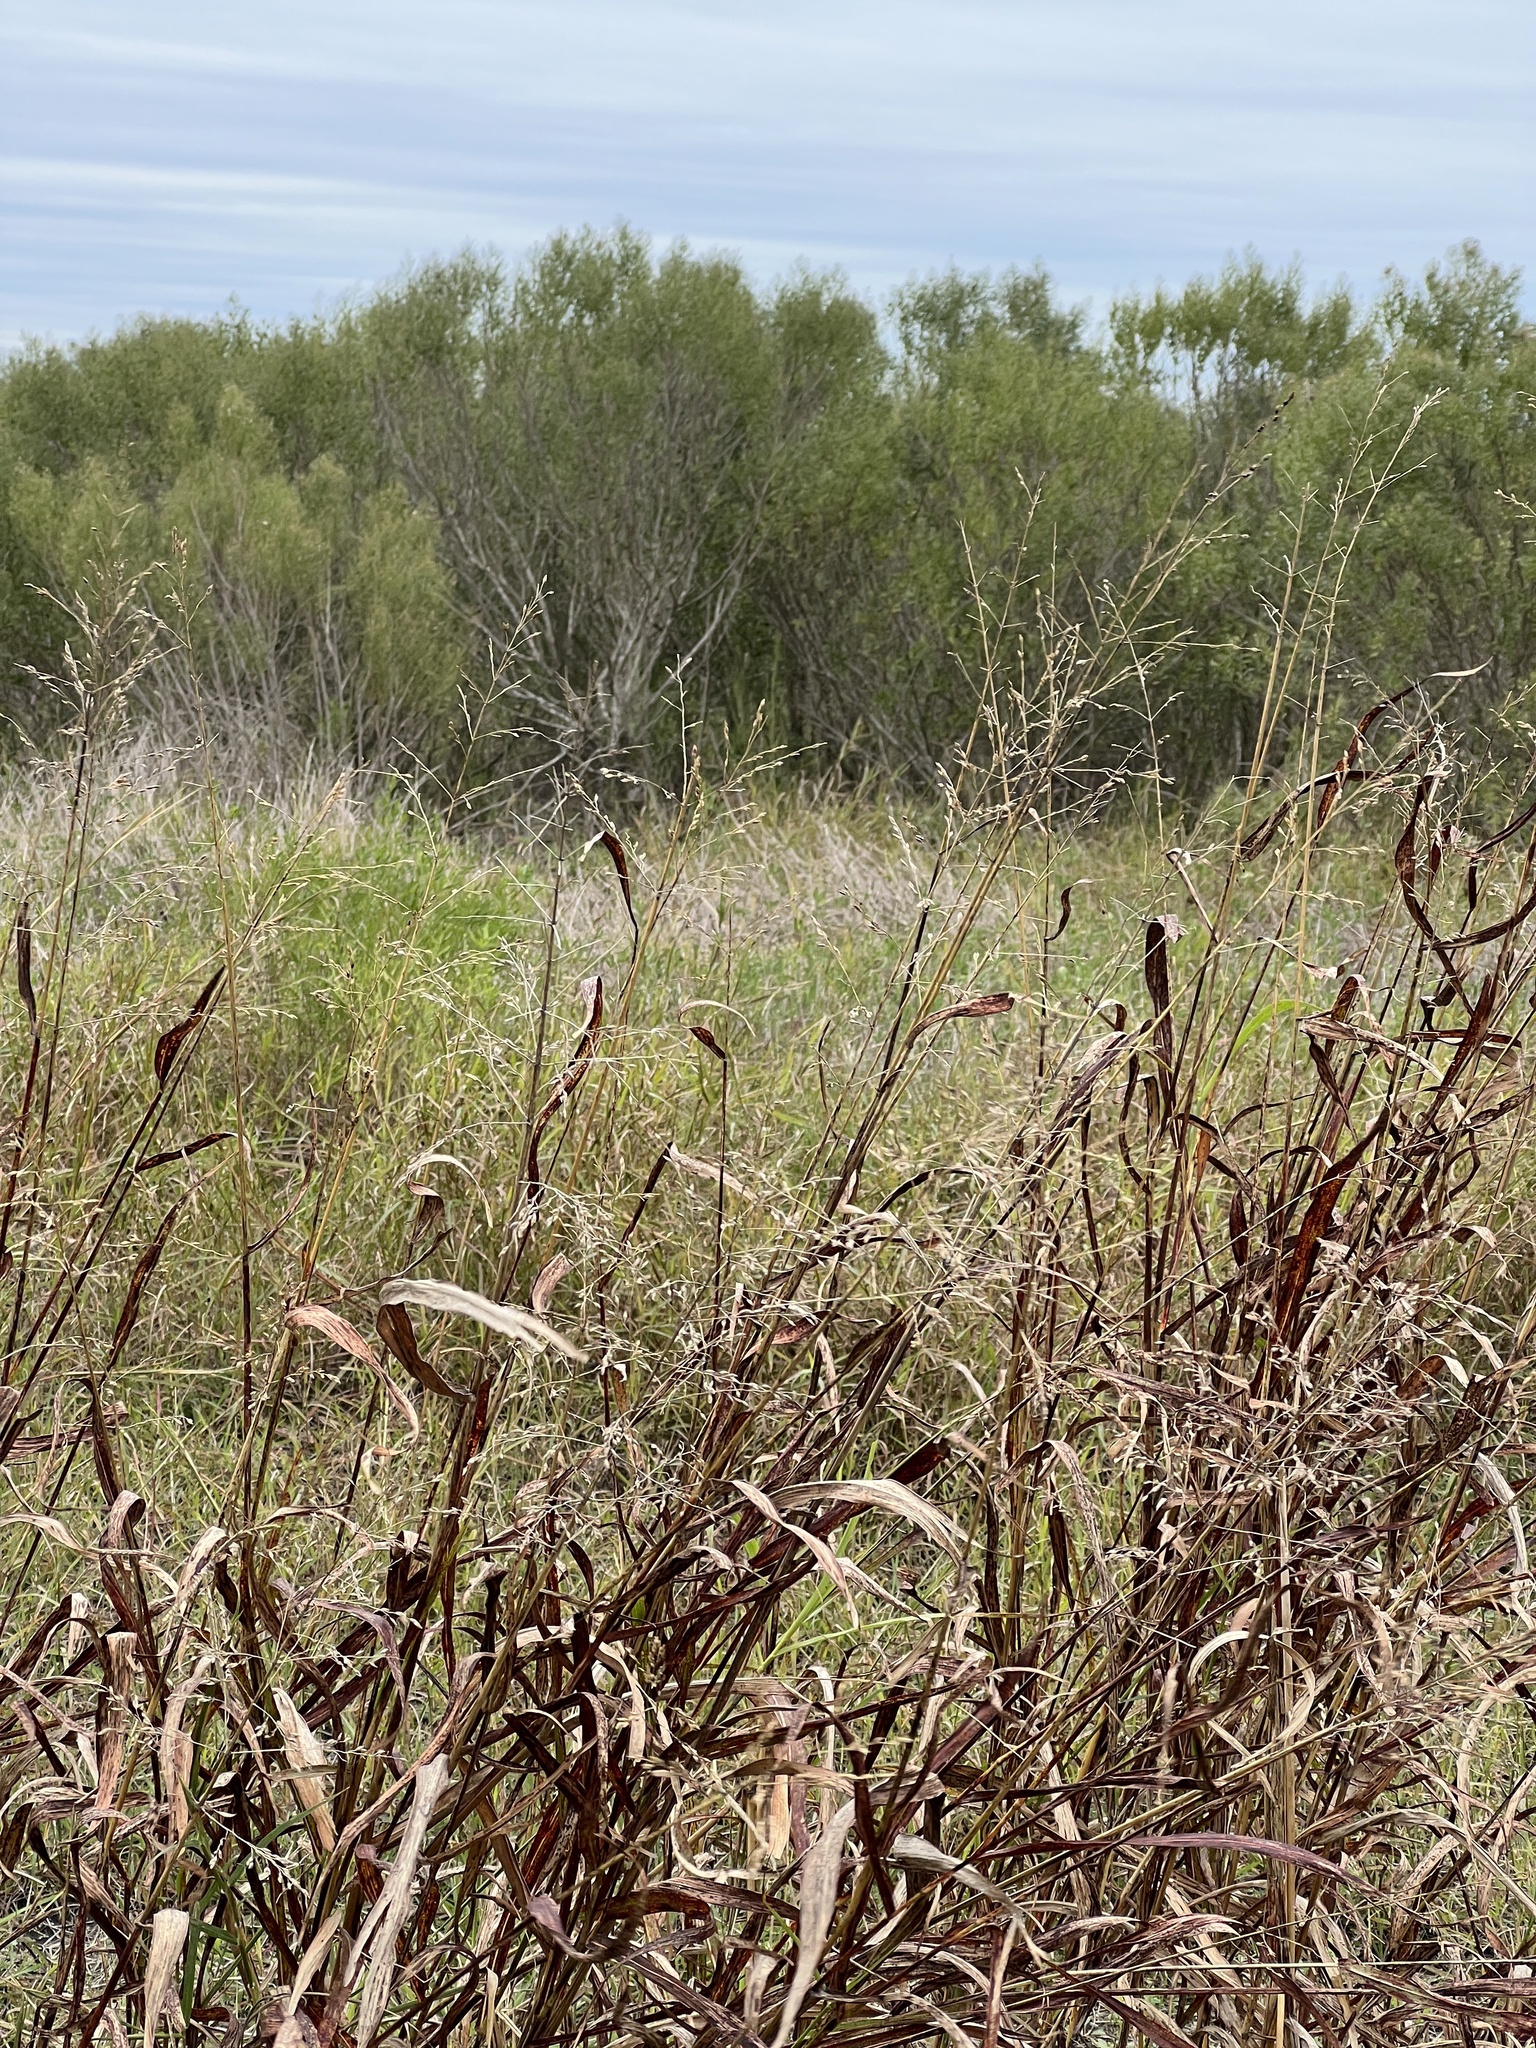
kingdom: Plantae
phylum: Tracheophyta
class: Liliopsida
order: Poales
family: Poaceae
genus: Sorghum
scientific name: Sorghum halepense
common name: Johnson-grass
